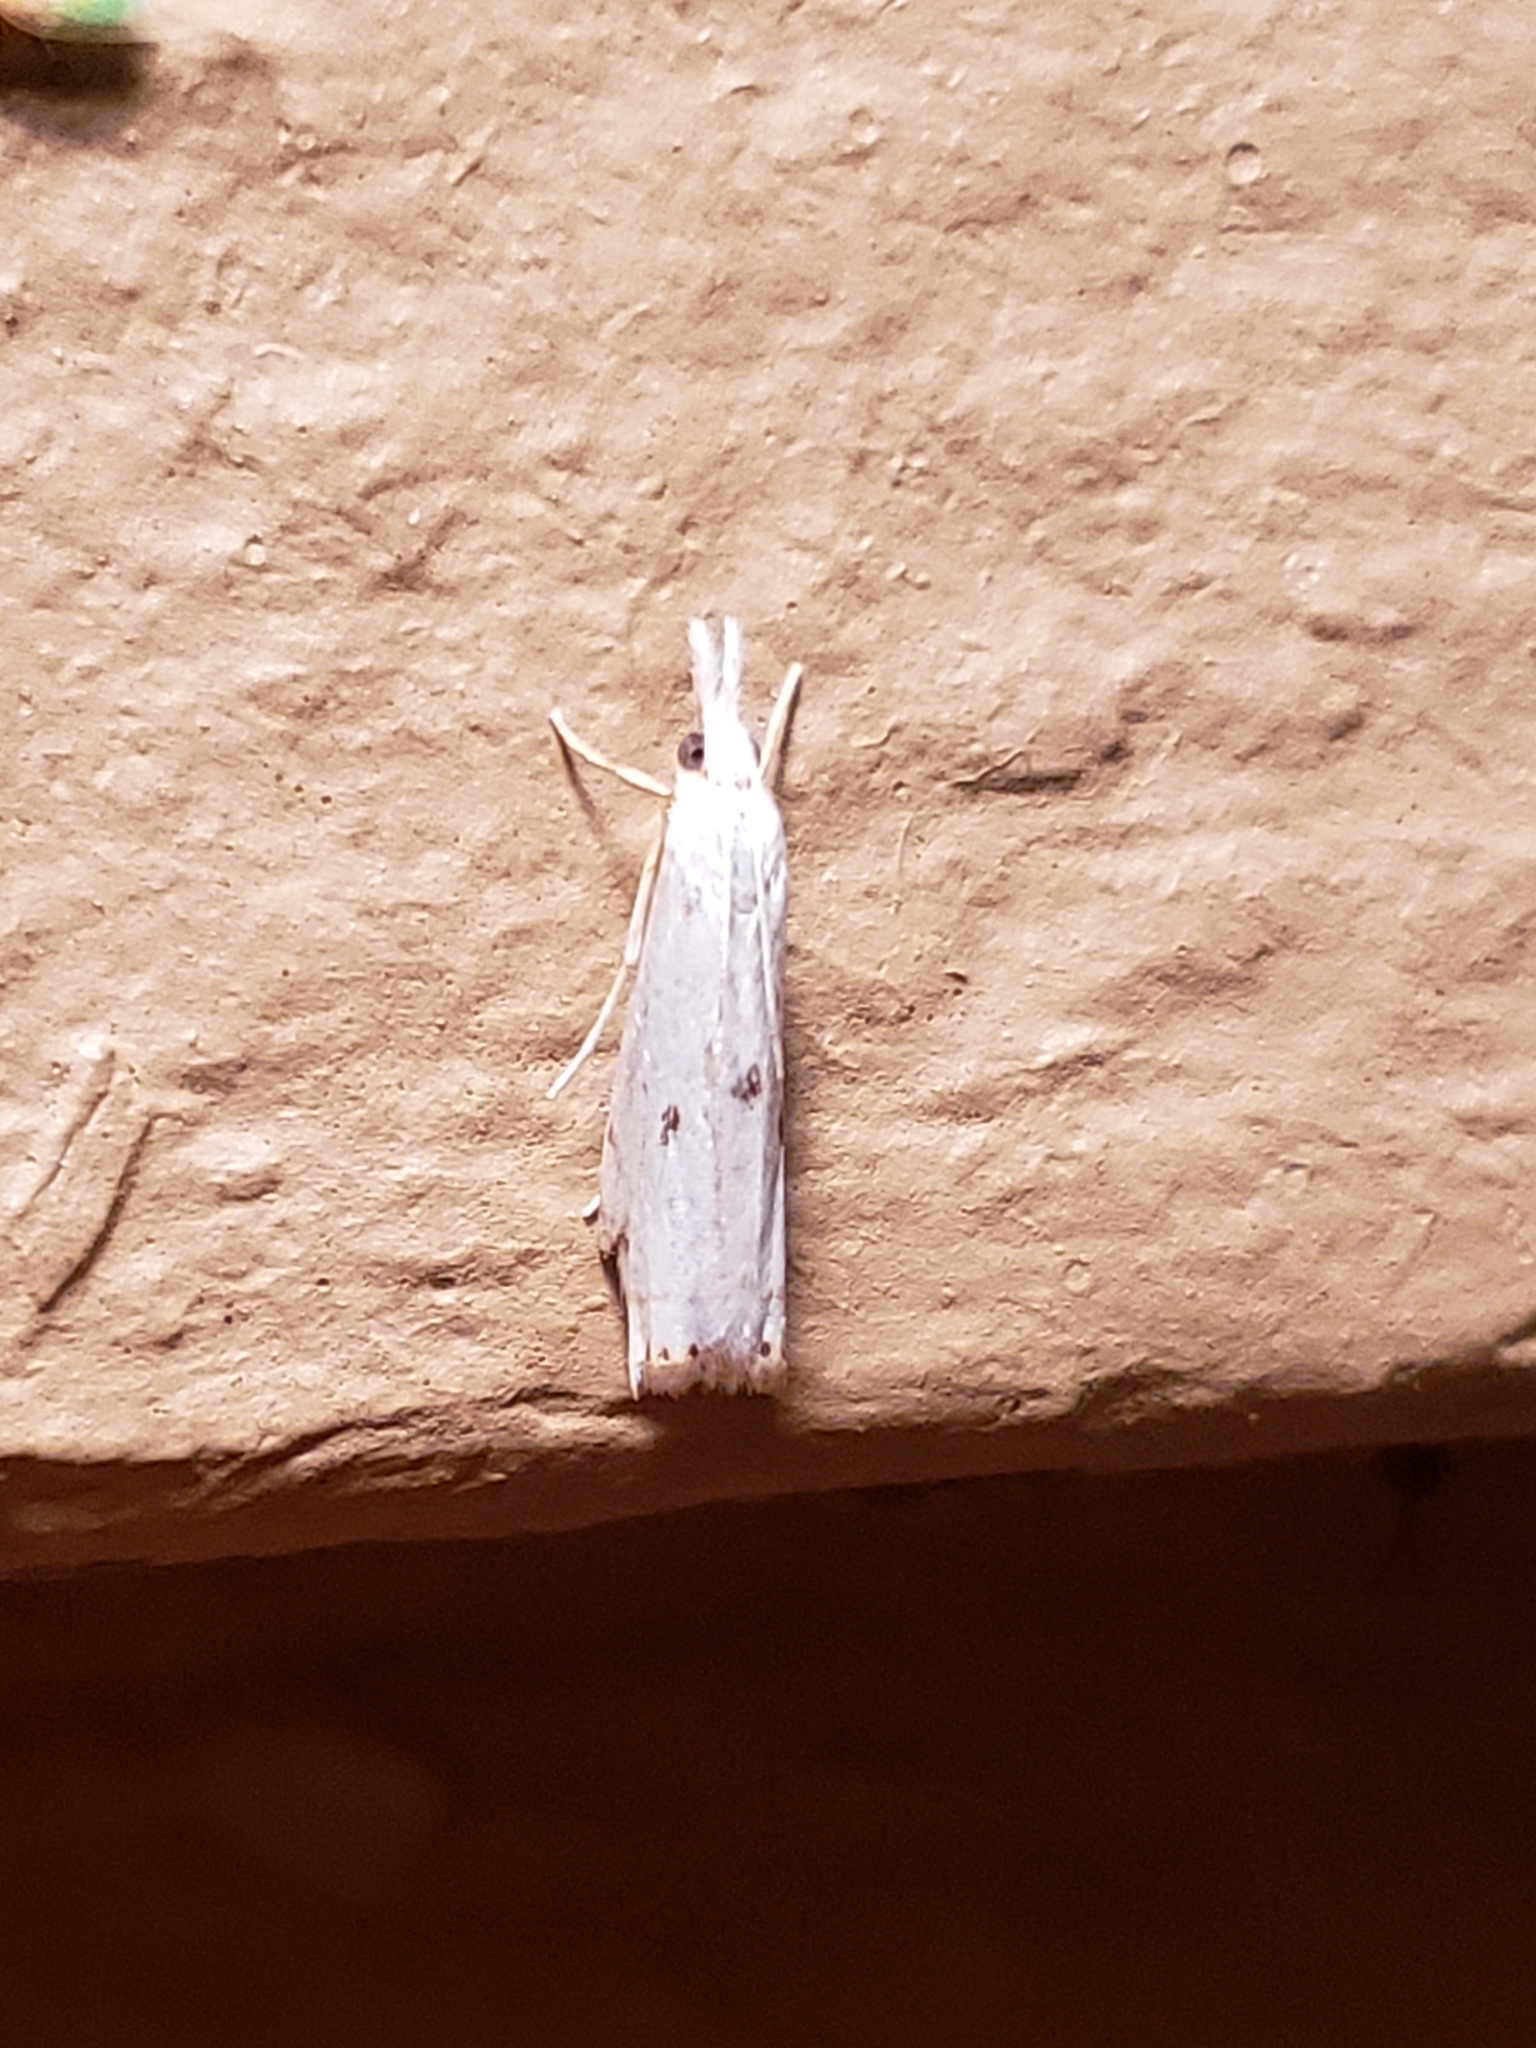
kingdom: Animalia
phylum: Arthropoda
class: Insecta
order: Lepidoptera
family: Crambidae
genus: Microcrambus
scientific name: Microcrambus biguttellus
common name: Gold-stripe grass-veneer moth
